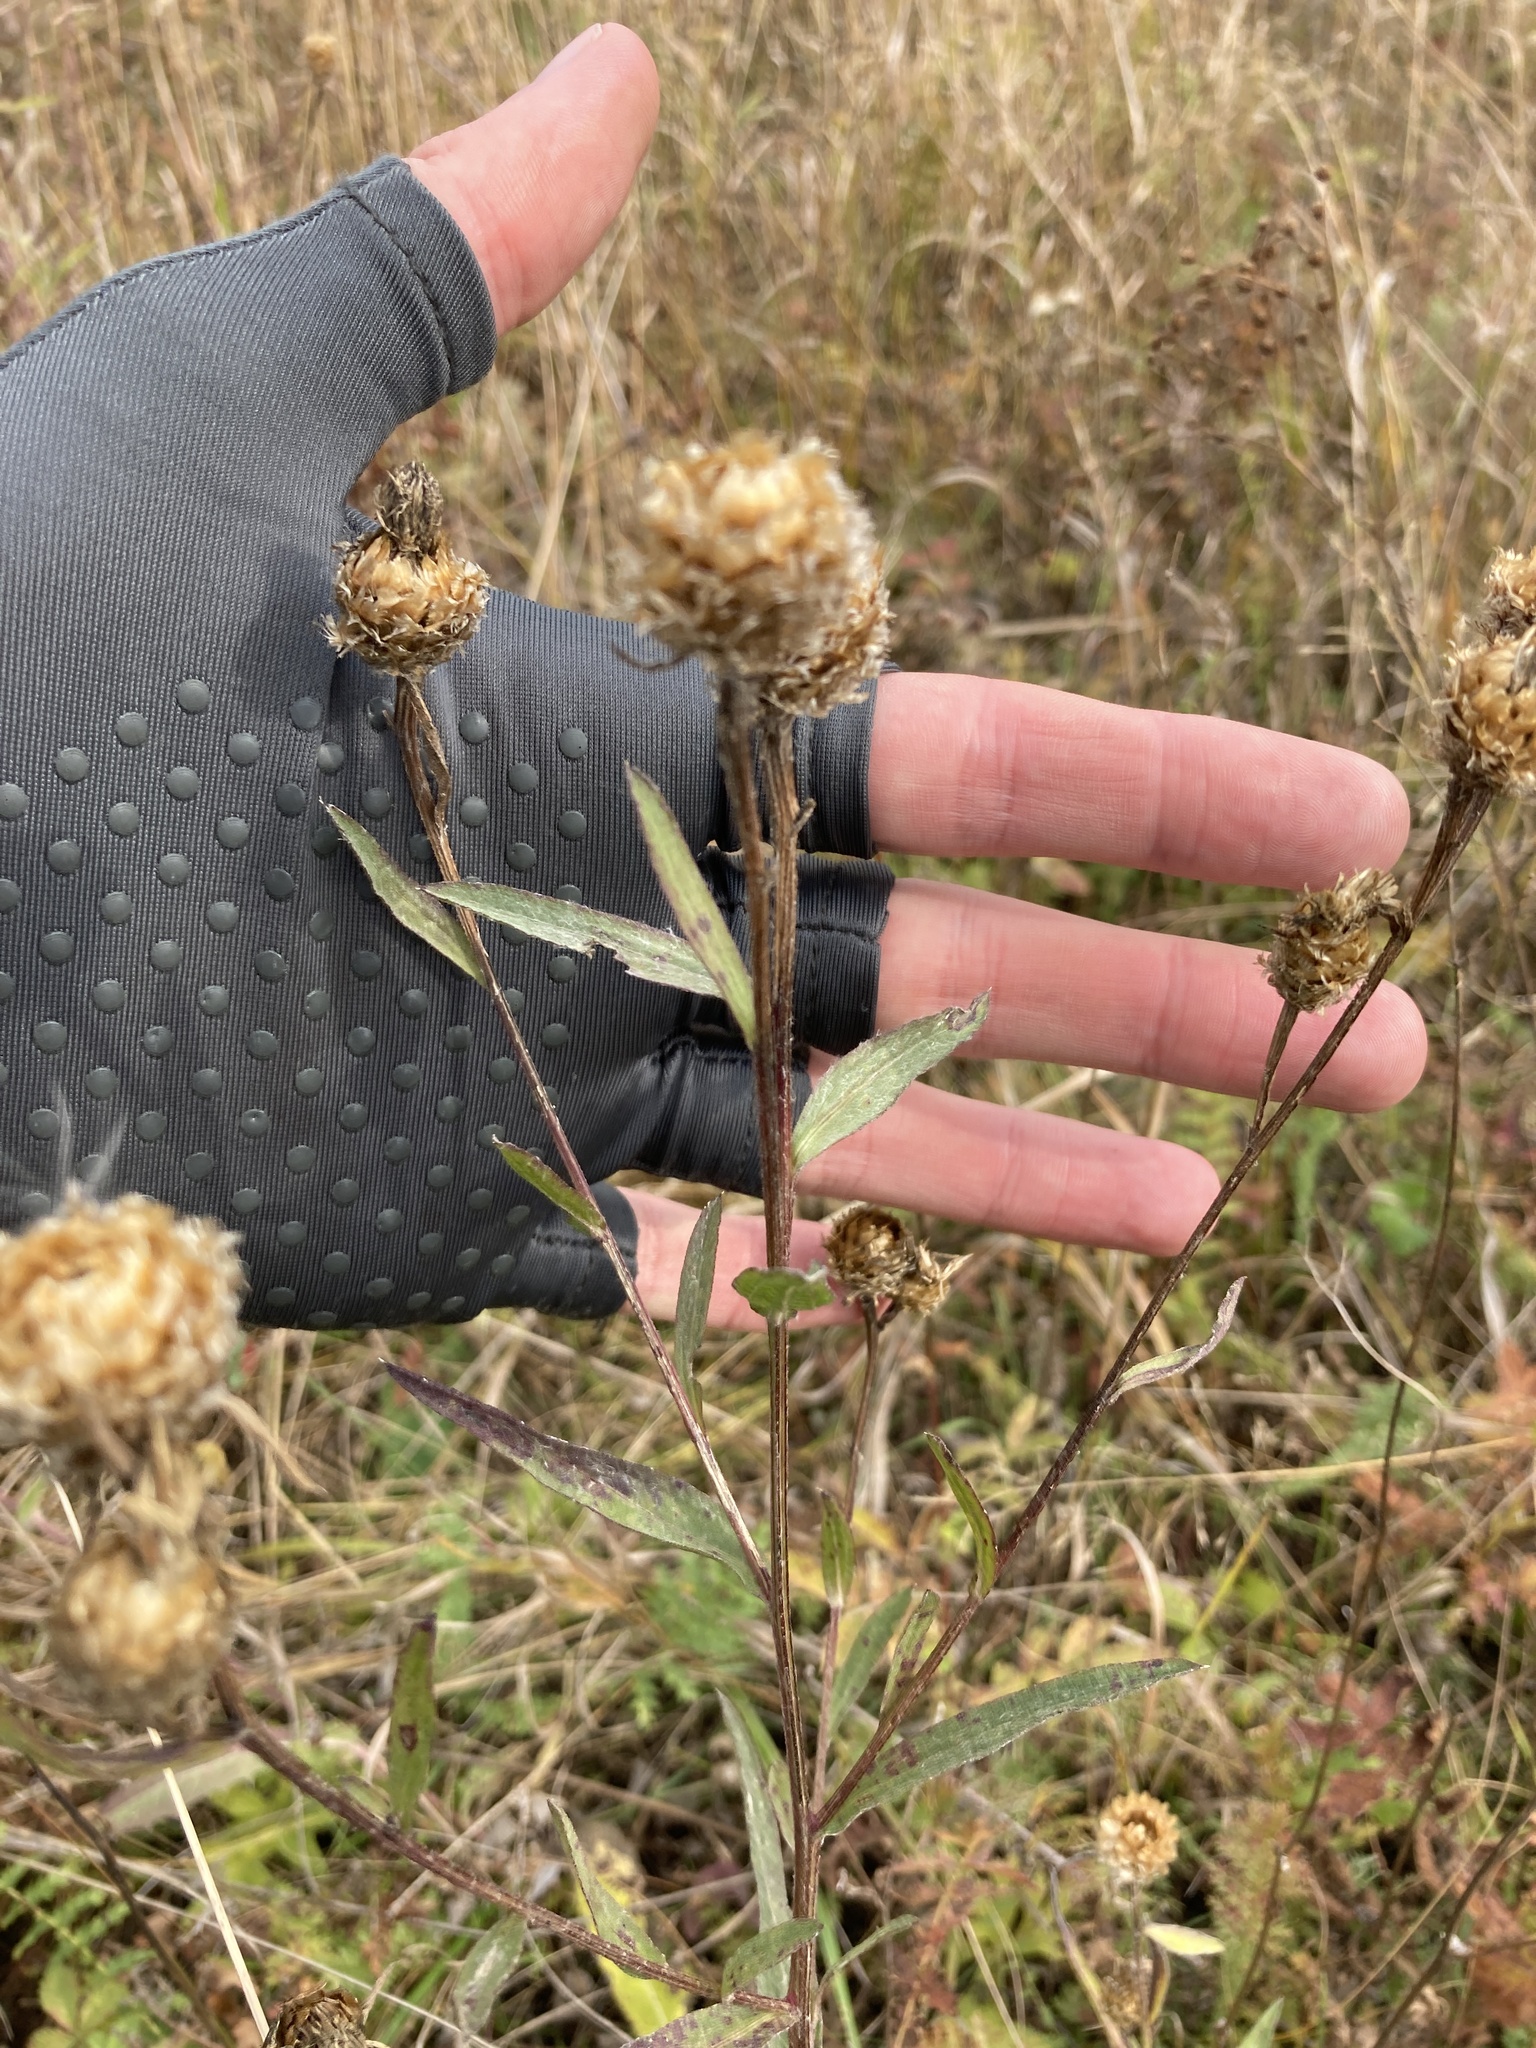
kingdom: Plantae
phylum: Tracheophyta
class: Magnoliopsida
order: Asterales
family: Asteraceae
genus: Centaurea
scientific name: Centaurea jacea
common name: Brown knapweed
